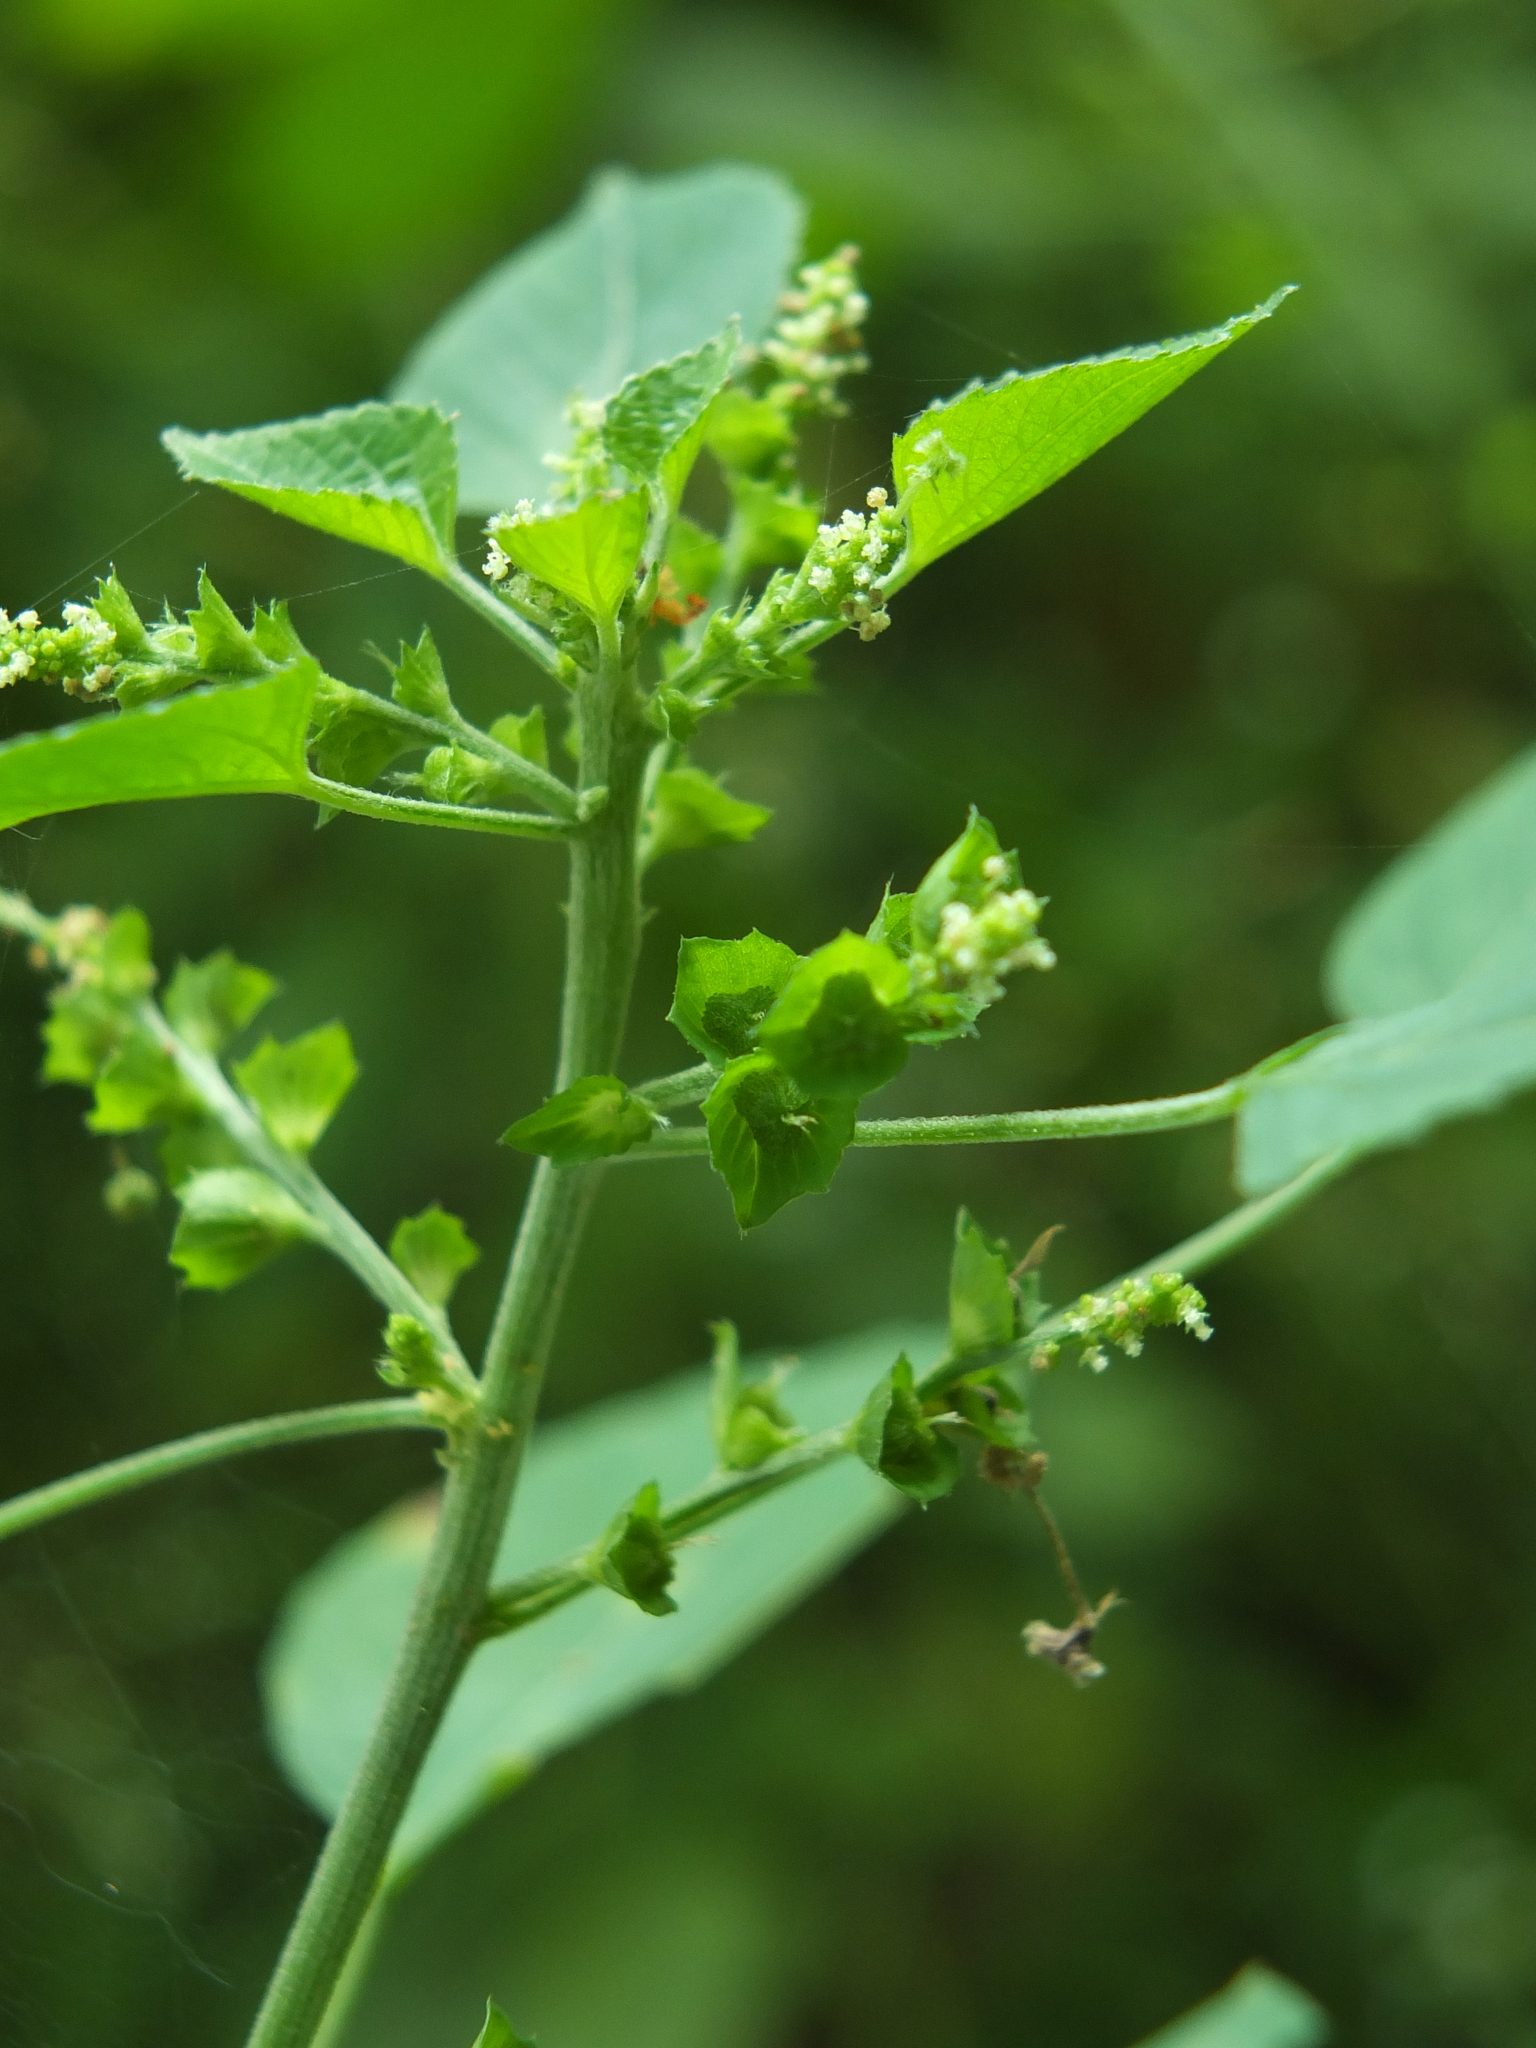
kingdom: Plantae
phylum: Tracheophyta
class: Magnoliopsida
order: Malpighiales
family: Euphorbiaceae
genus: Acalypha
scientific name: Acalypha indica
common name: Indian acalypha
